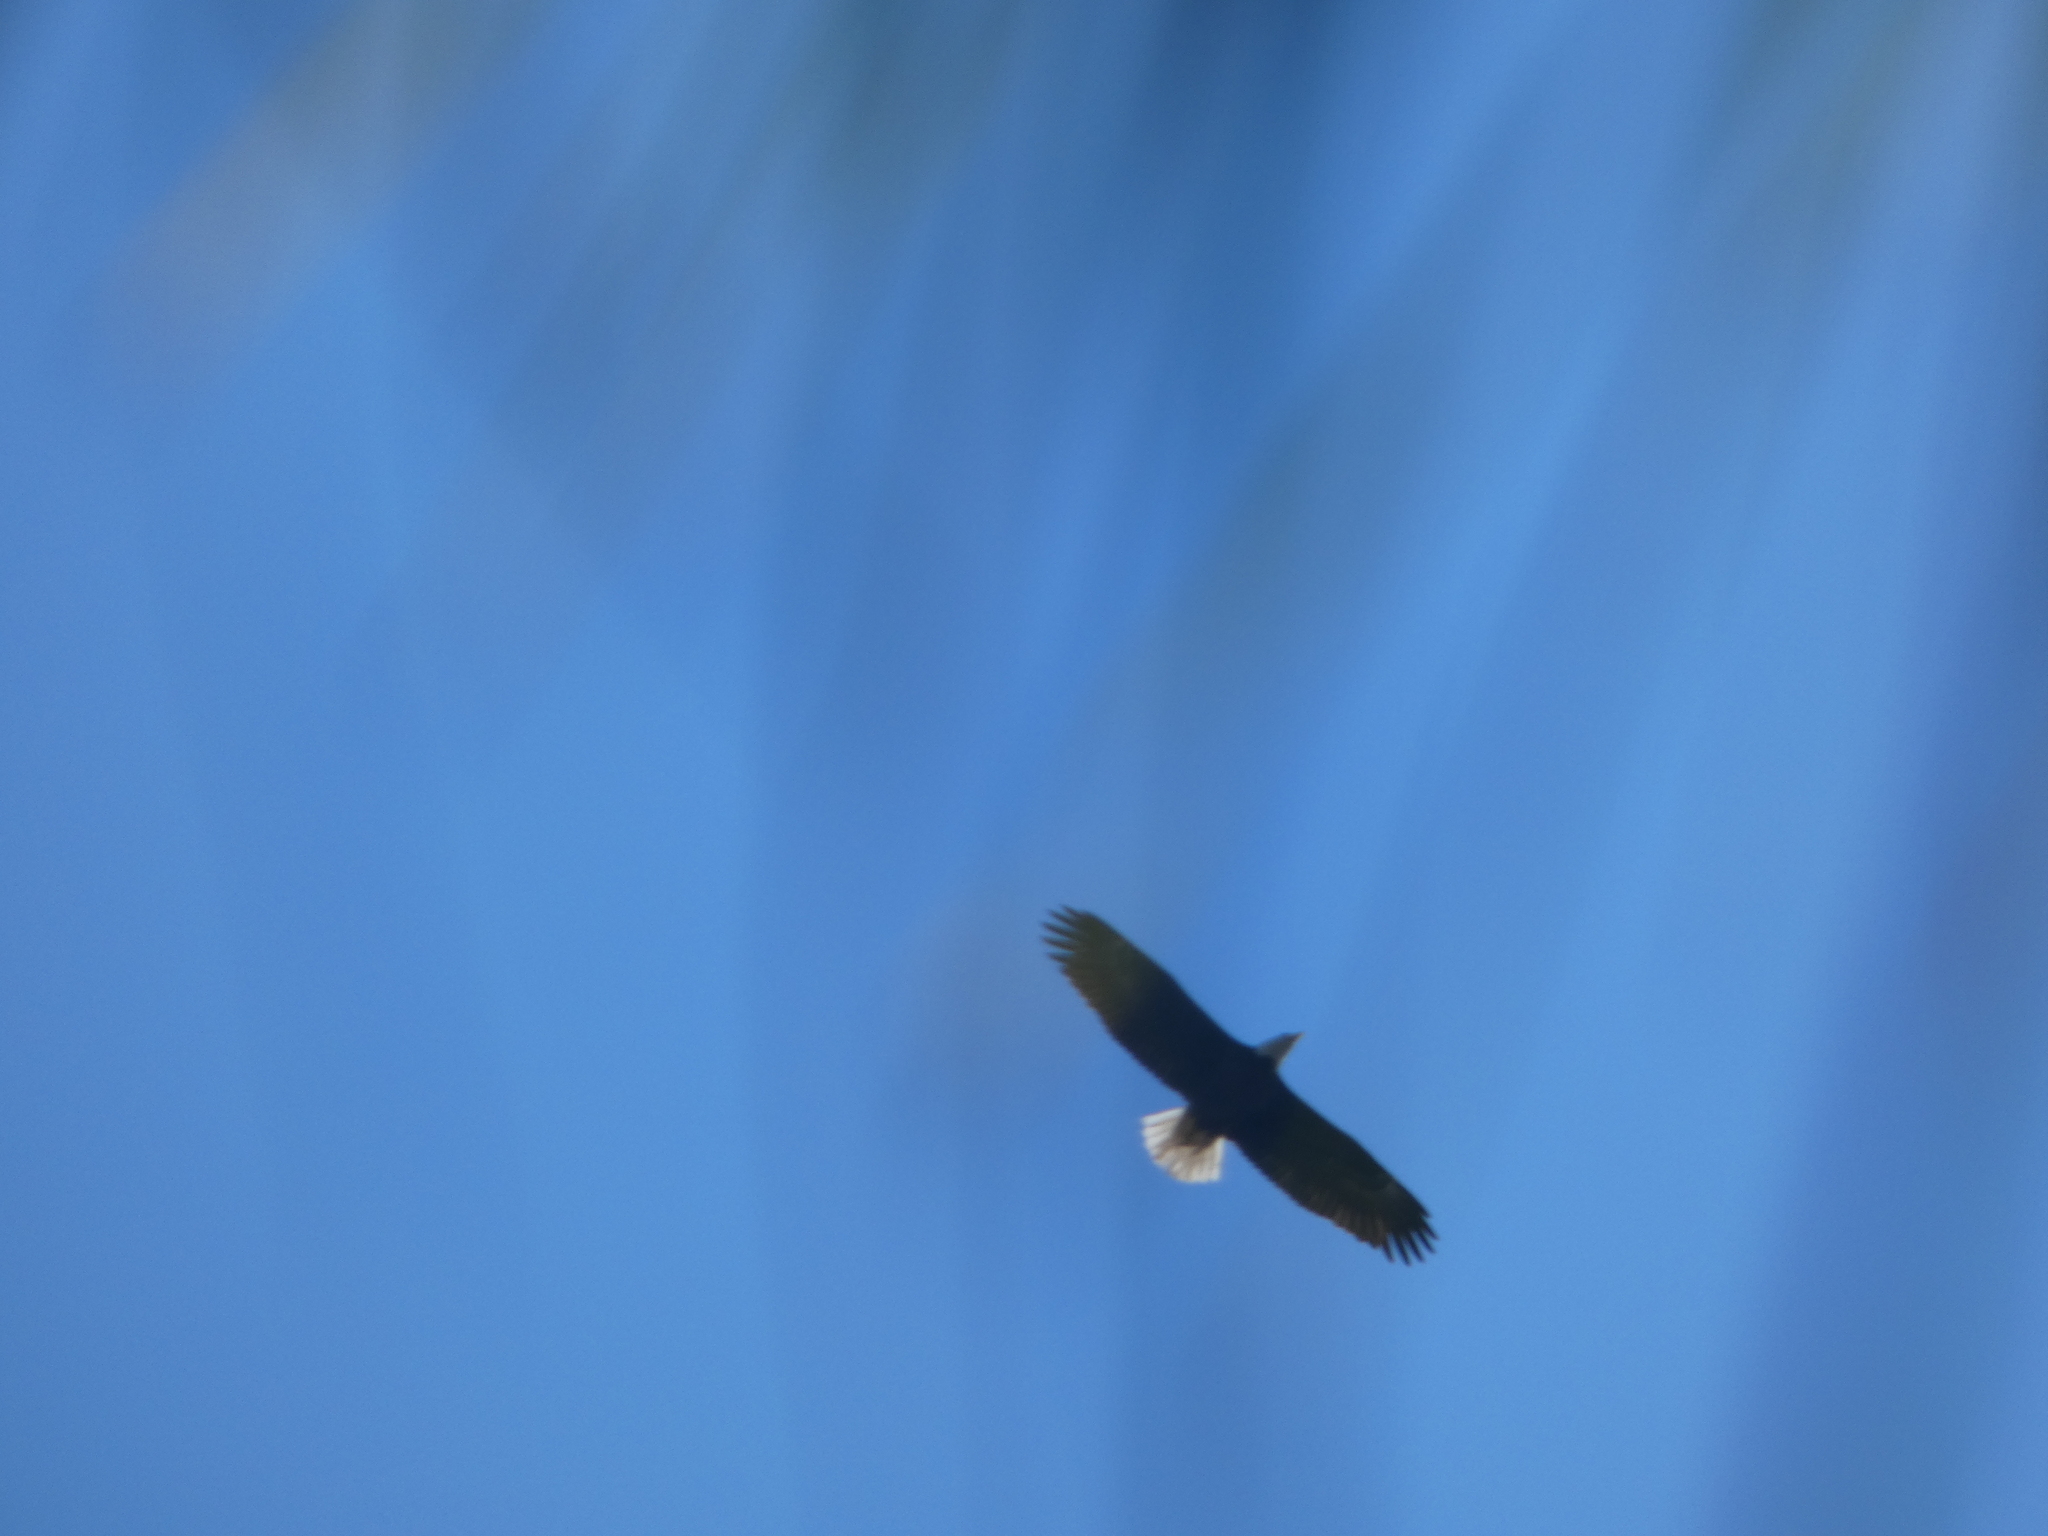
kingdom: Animalia
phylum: Chordata
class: Aves
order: Accipitriformes
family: Accipitridae
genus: Haliaeetus
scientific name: Haliaeetus leucocephalus
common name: Bald eagle
